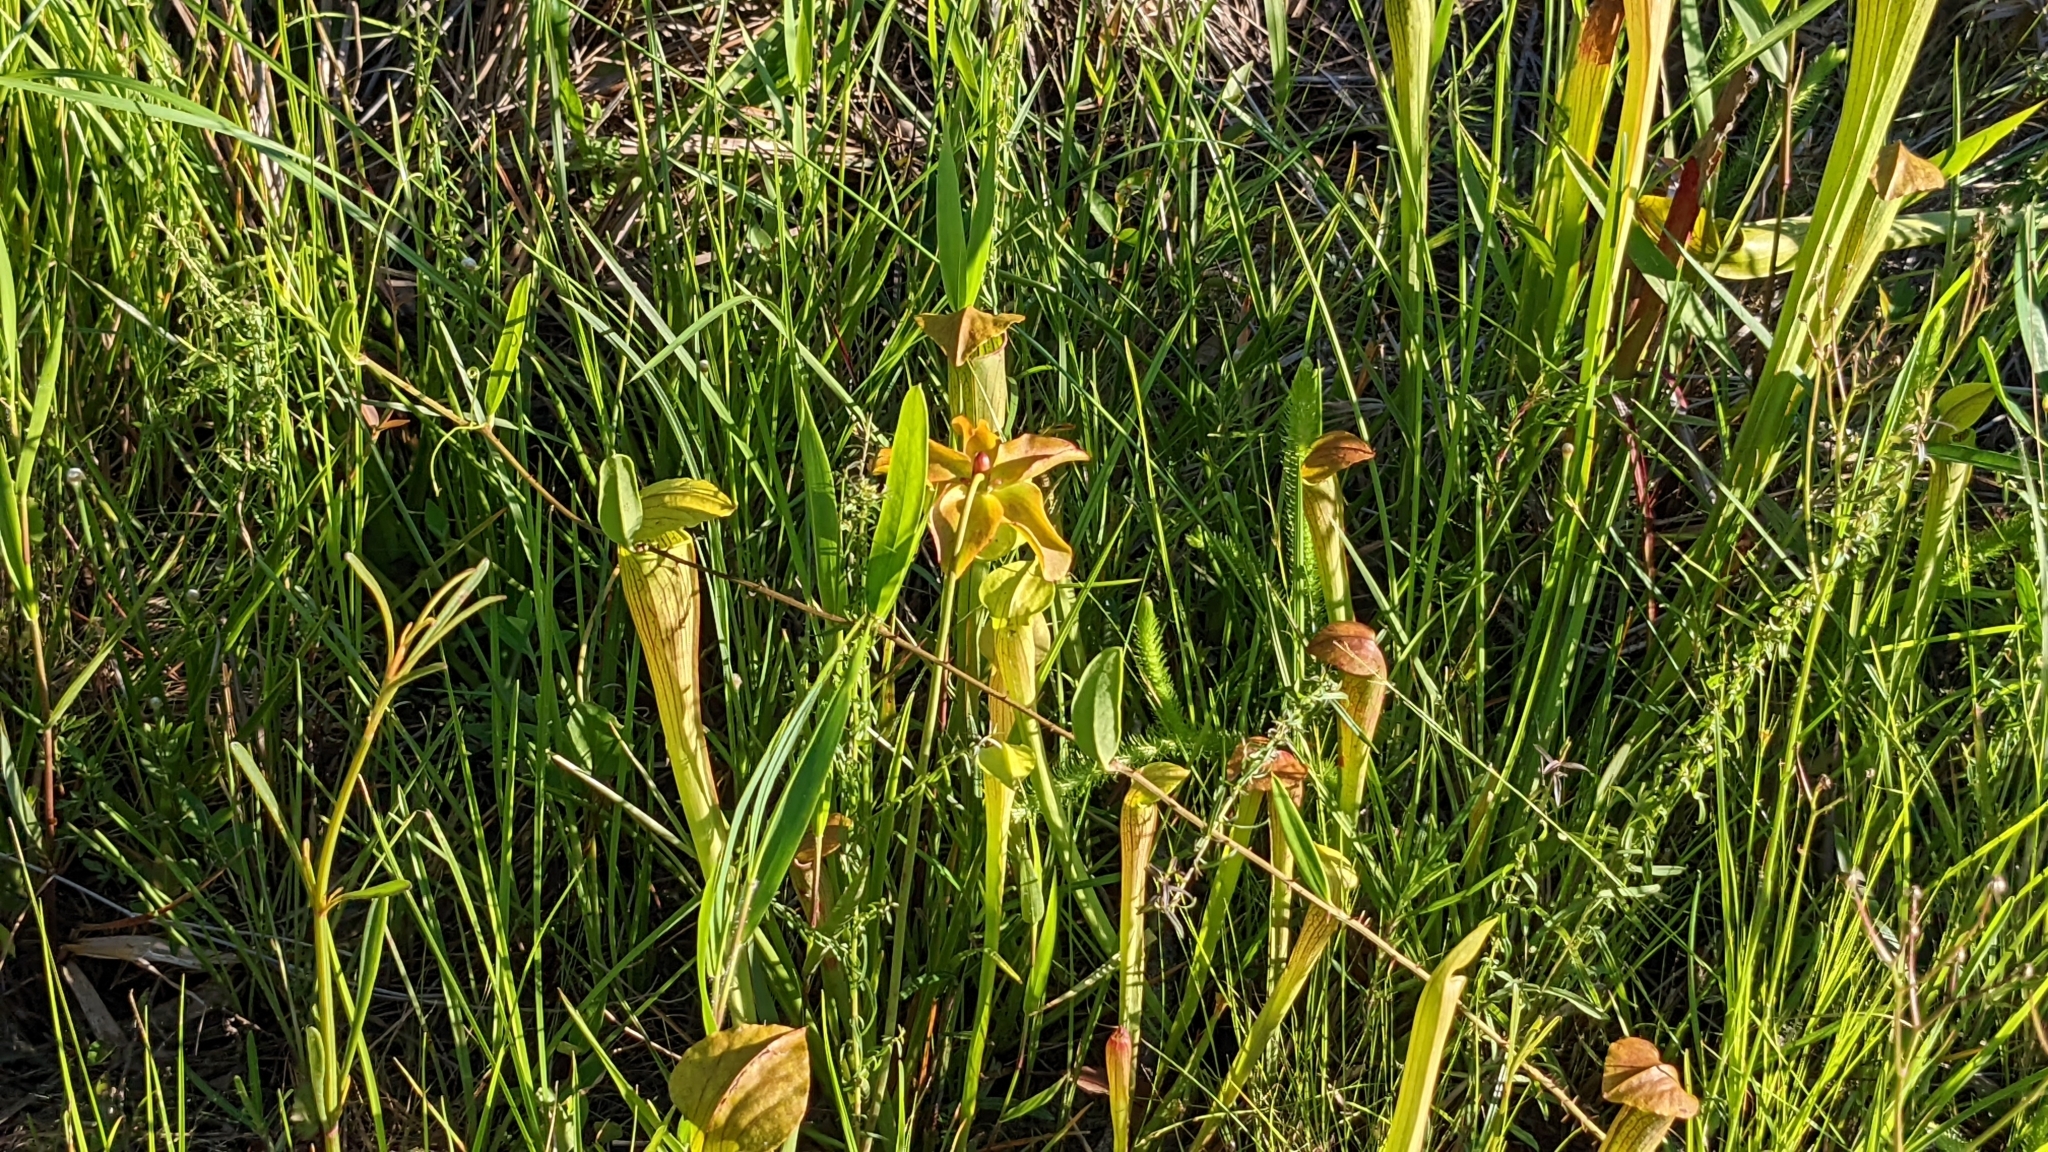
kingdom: Plantae
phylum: Tracheophyta
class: Magnoliopsida
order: Ericales
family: Sarraceniaceae
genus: Sarracenia
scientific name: Sarracenia alata
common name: Yellow trumpets
